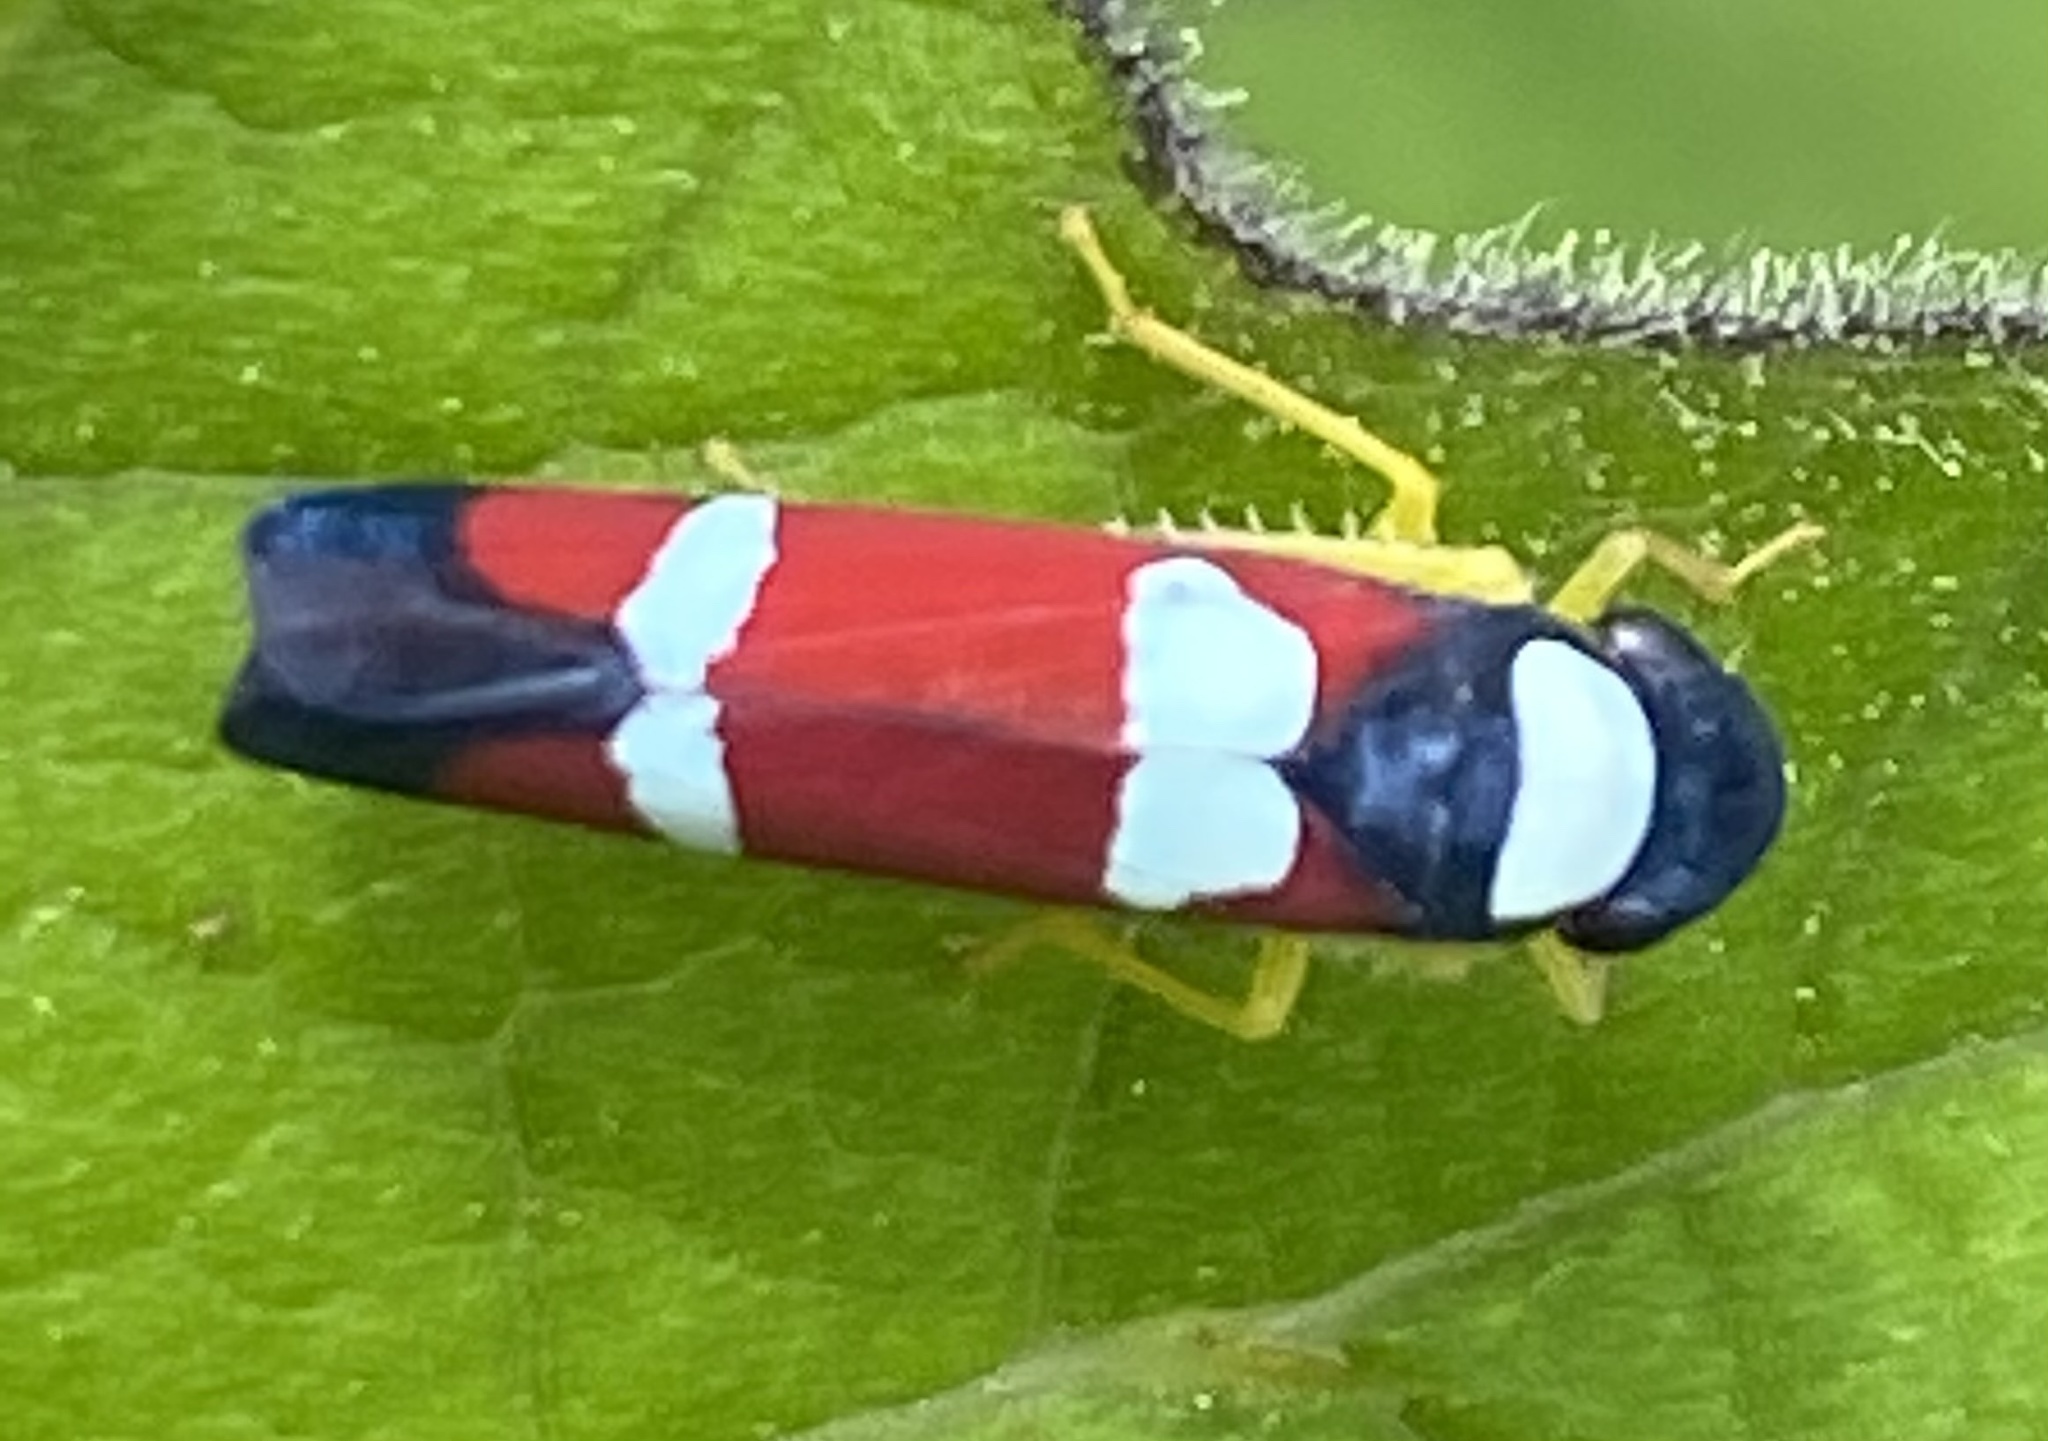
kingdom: Animalia
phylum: Arthropoda
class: Insecta
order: Hemiptera
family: Cicadellidae
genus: Erythrogonia
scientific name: Erythrogonia phoenicea
